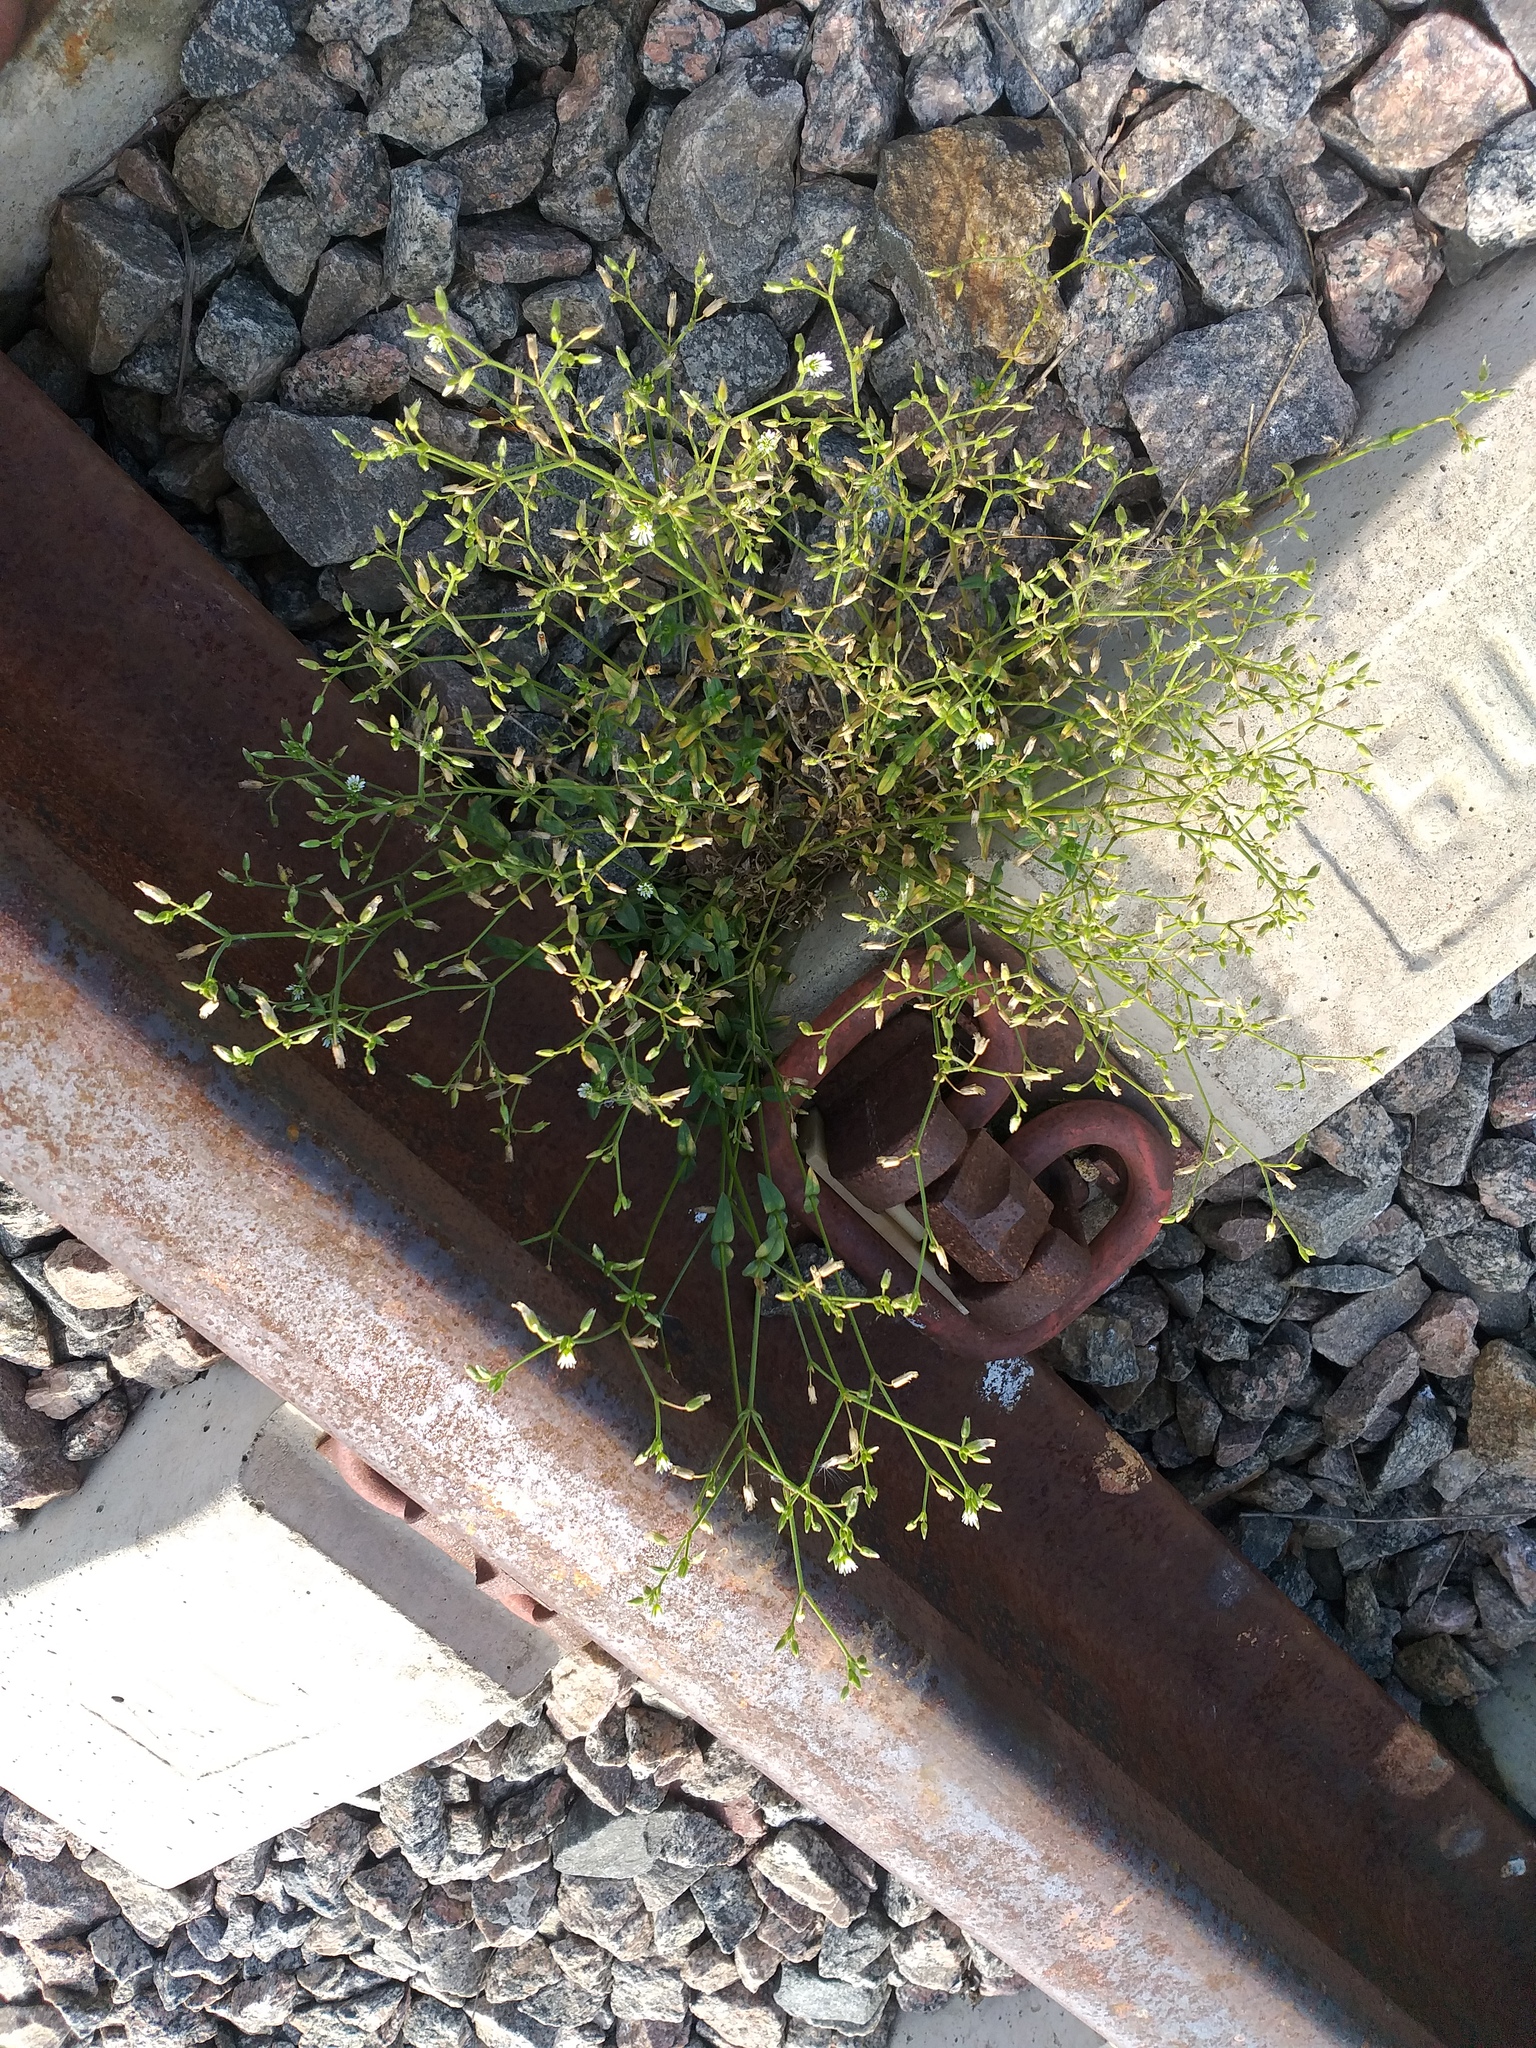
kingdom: Plantae
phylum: Tracheophyta
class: Magnoliopsida
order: Caryophyllales
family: Caryophyllaceae
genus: Cerastium
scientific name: Cerastium holosteoides
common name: Big chickweed
